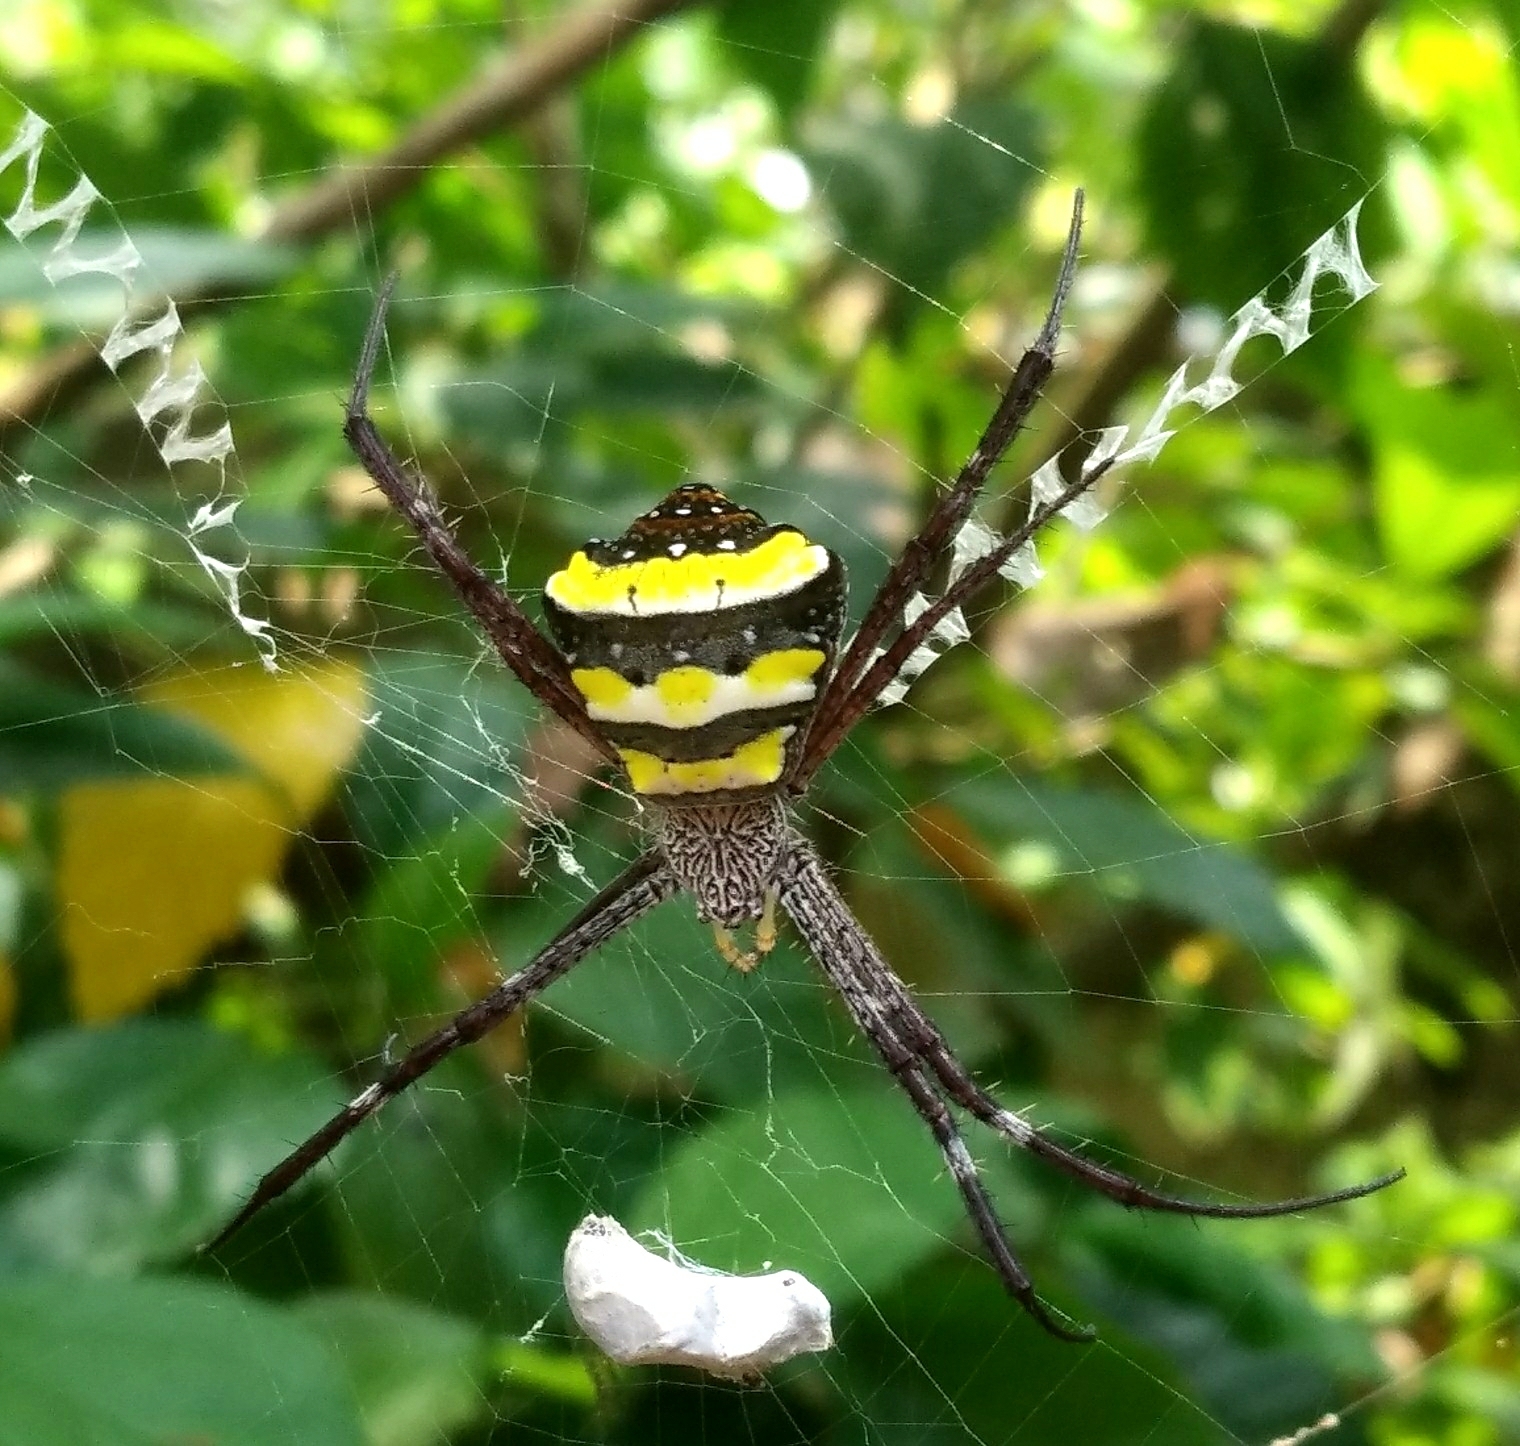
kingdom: Animalia
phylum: Arthropoda
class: Arachnida
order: Araneae
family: Araneidae
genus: Argiope
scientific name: Argiope taprobanica
